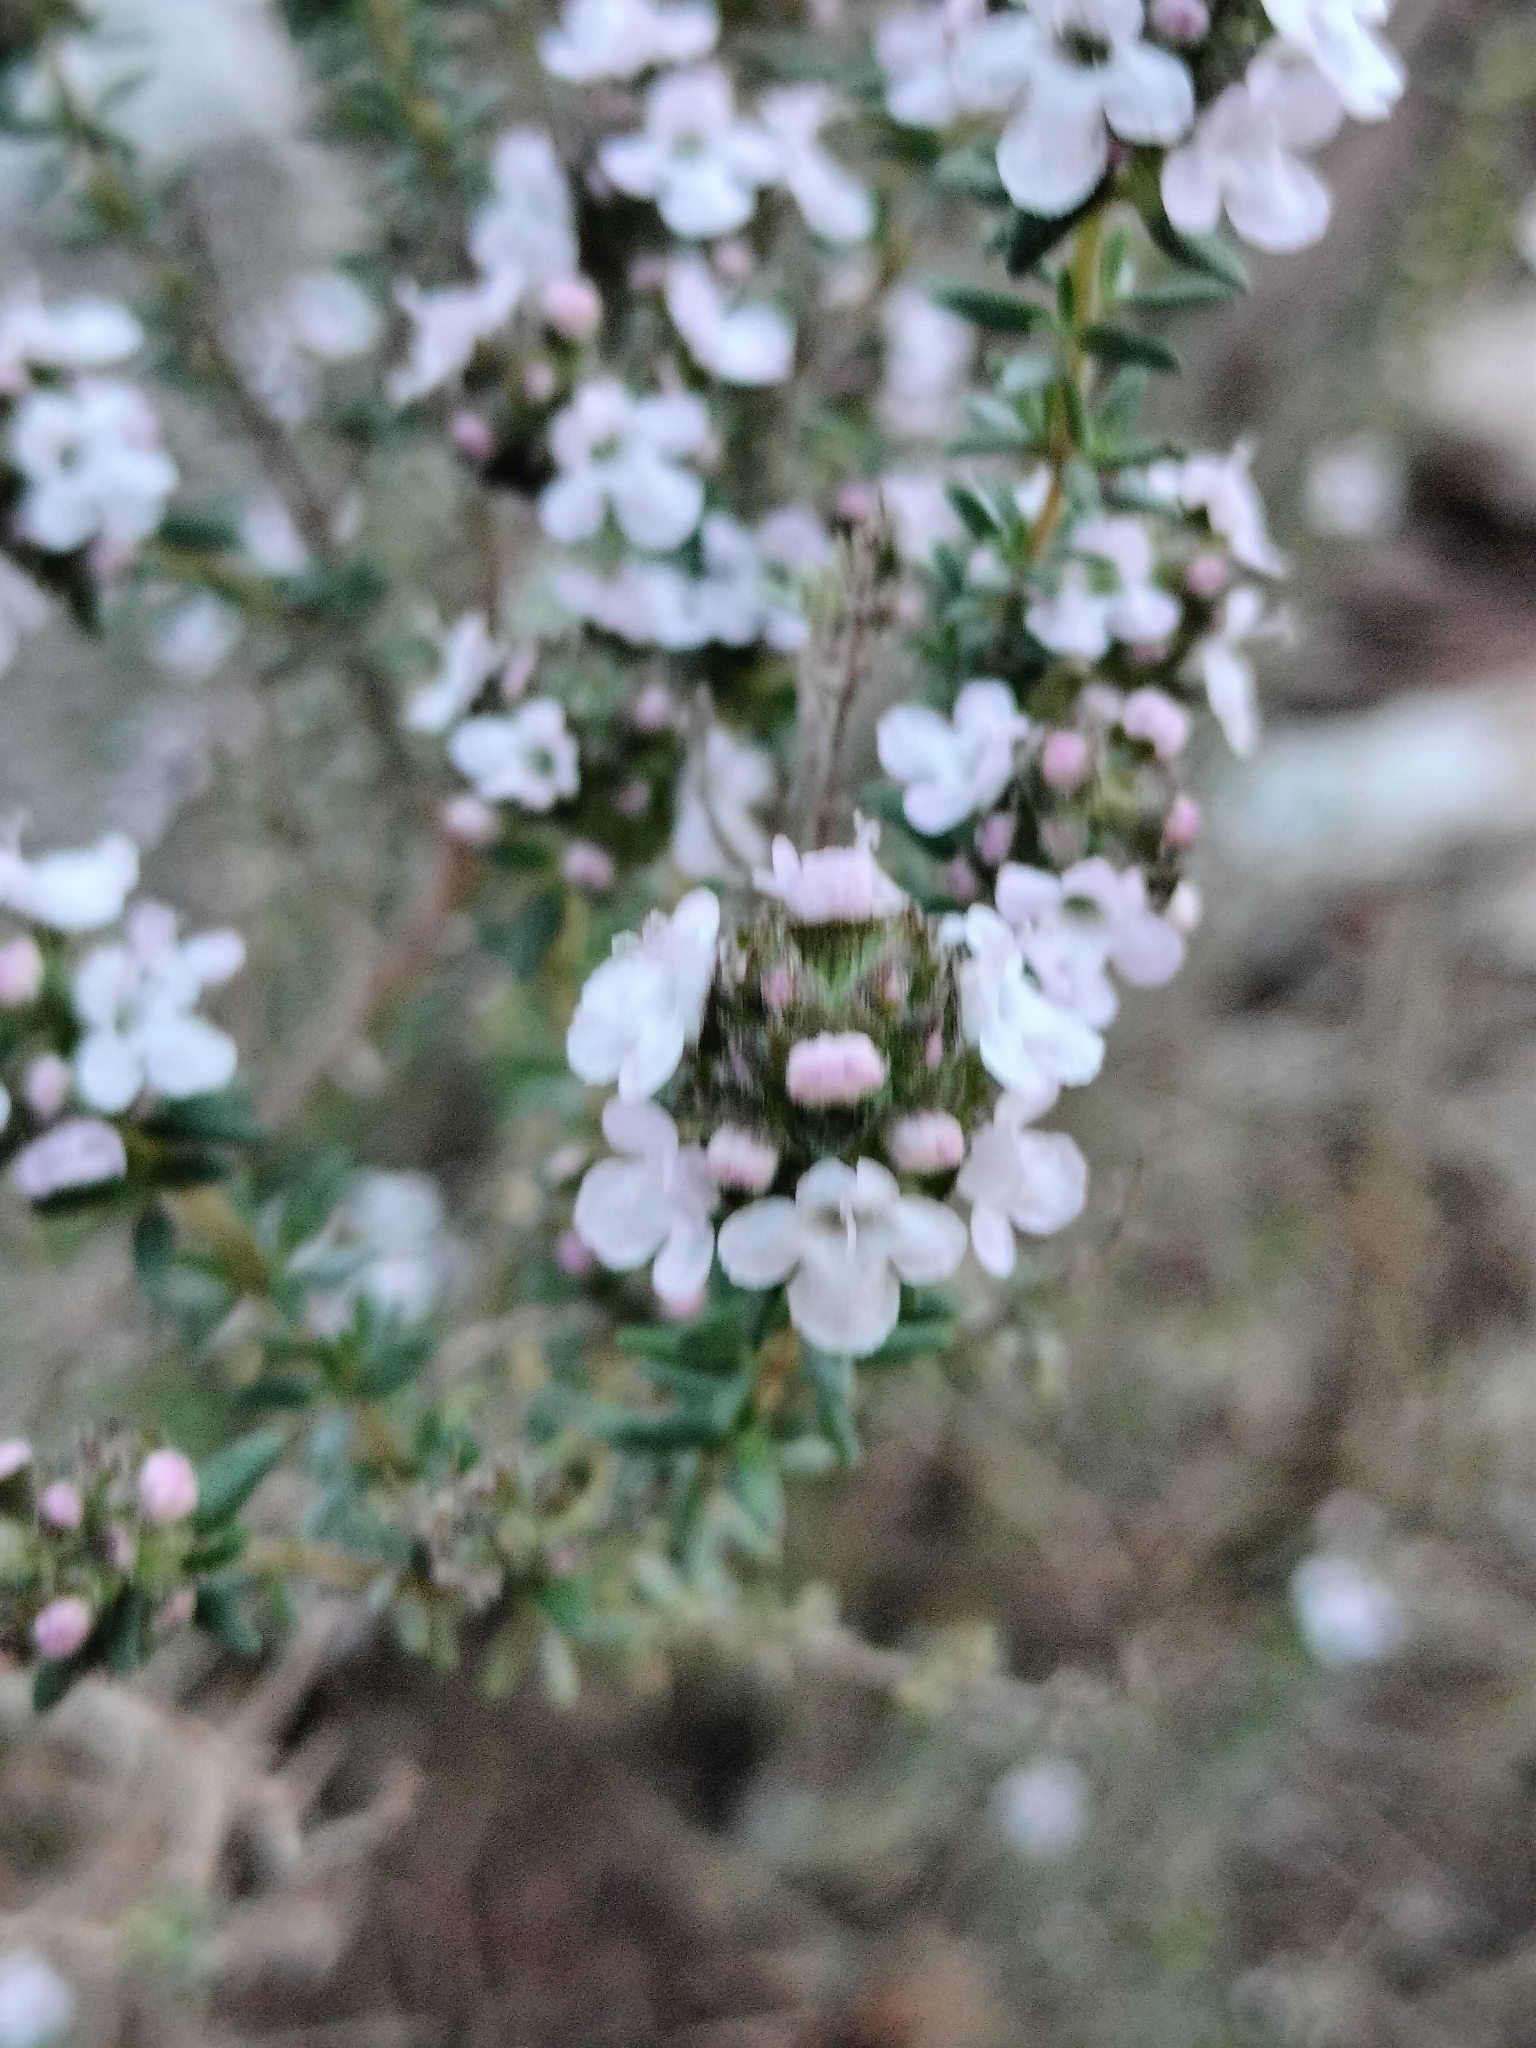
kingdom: Plantae
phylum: Tracheophyta
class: Magnoliopsida
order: Lamiales
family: Lamiaceae
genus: Thymus
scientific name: Thymus vulgaris
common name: Garden thyme
